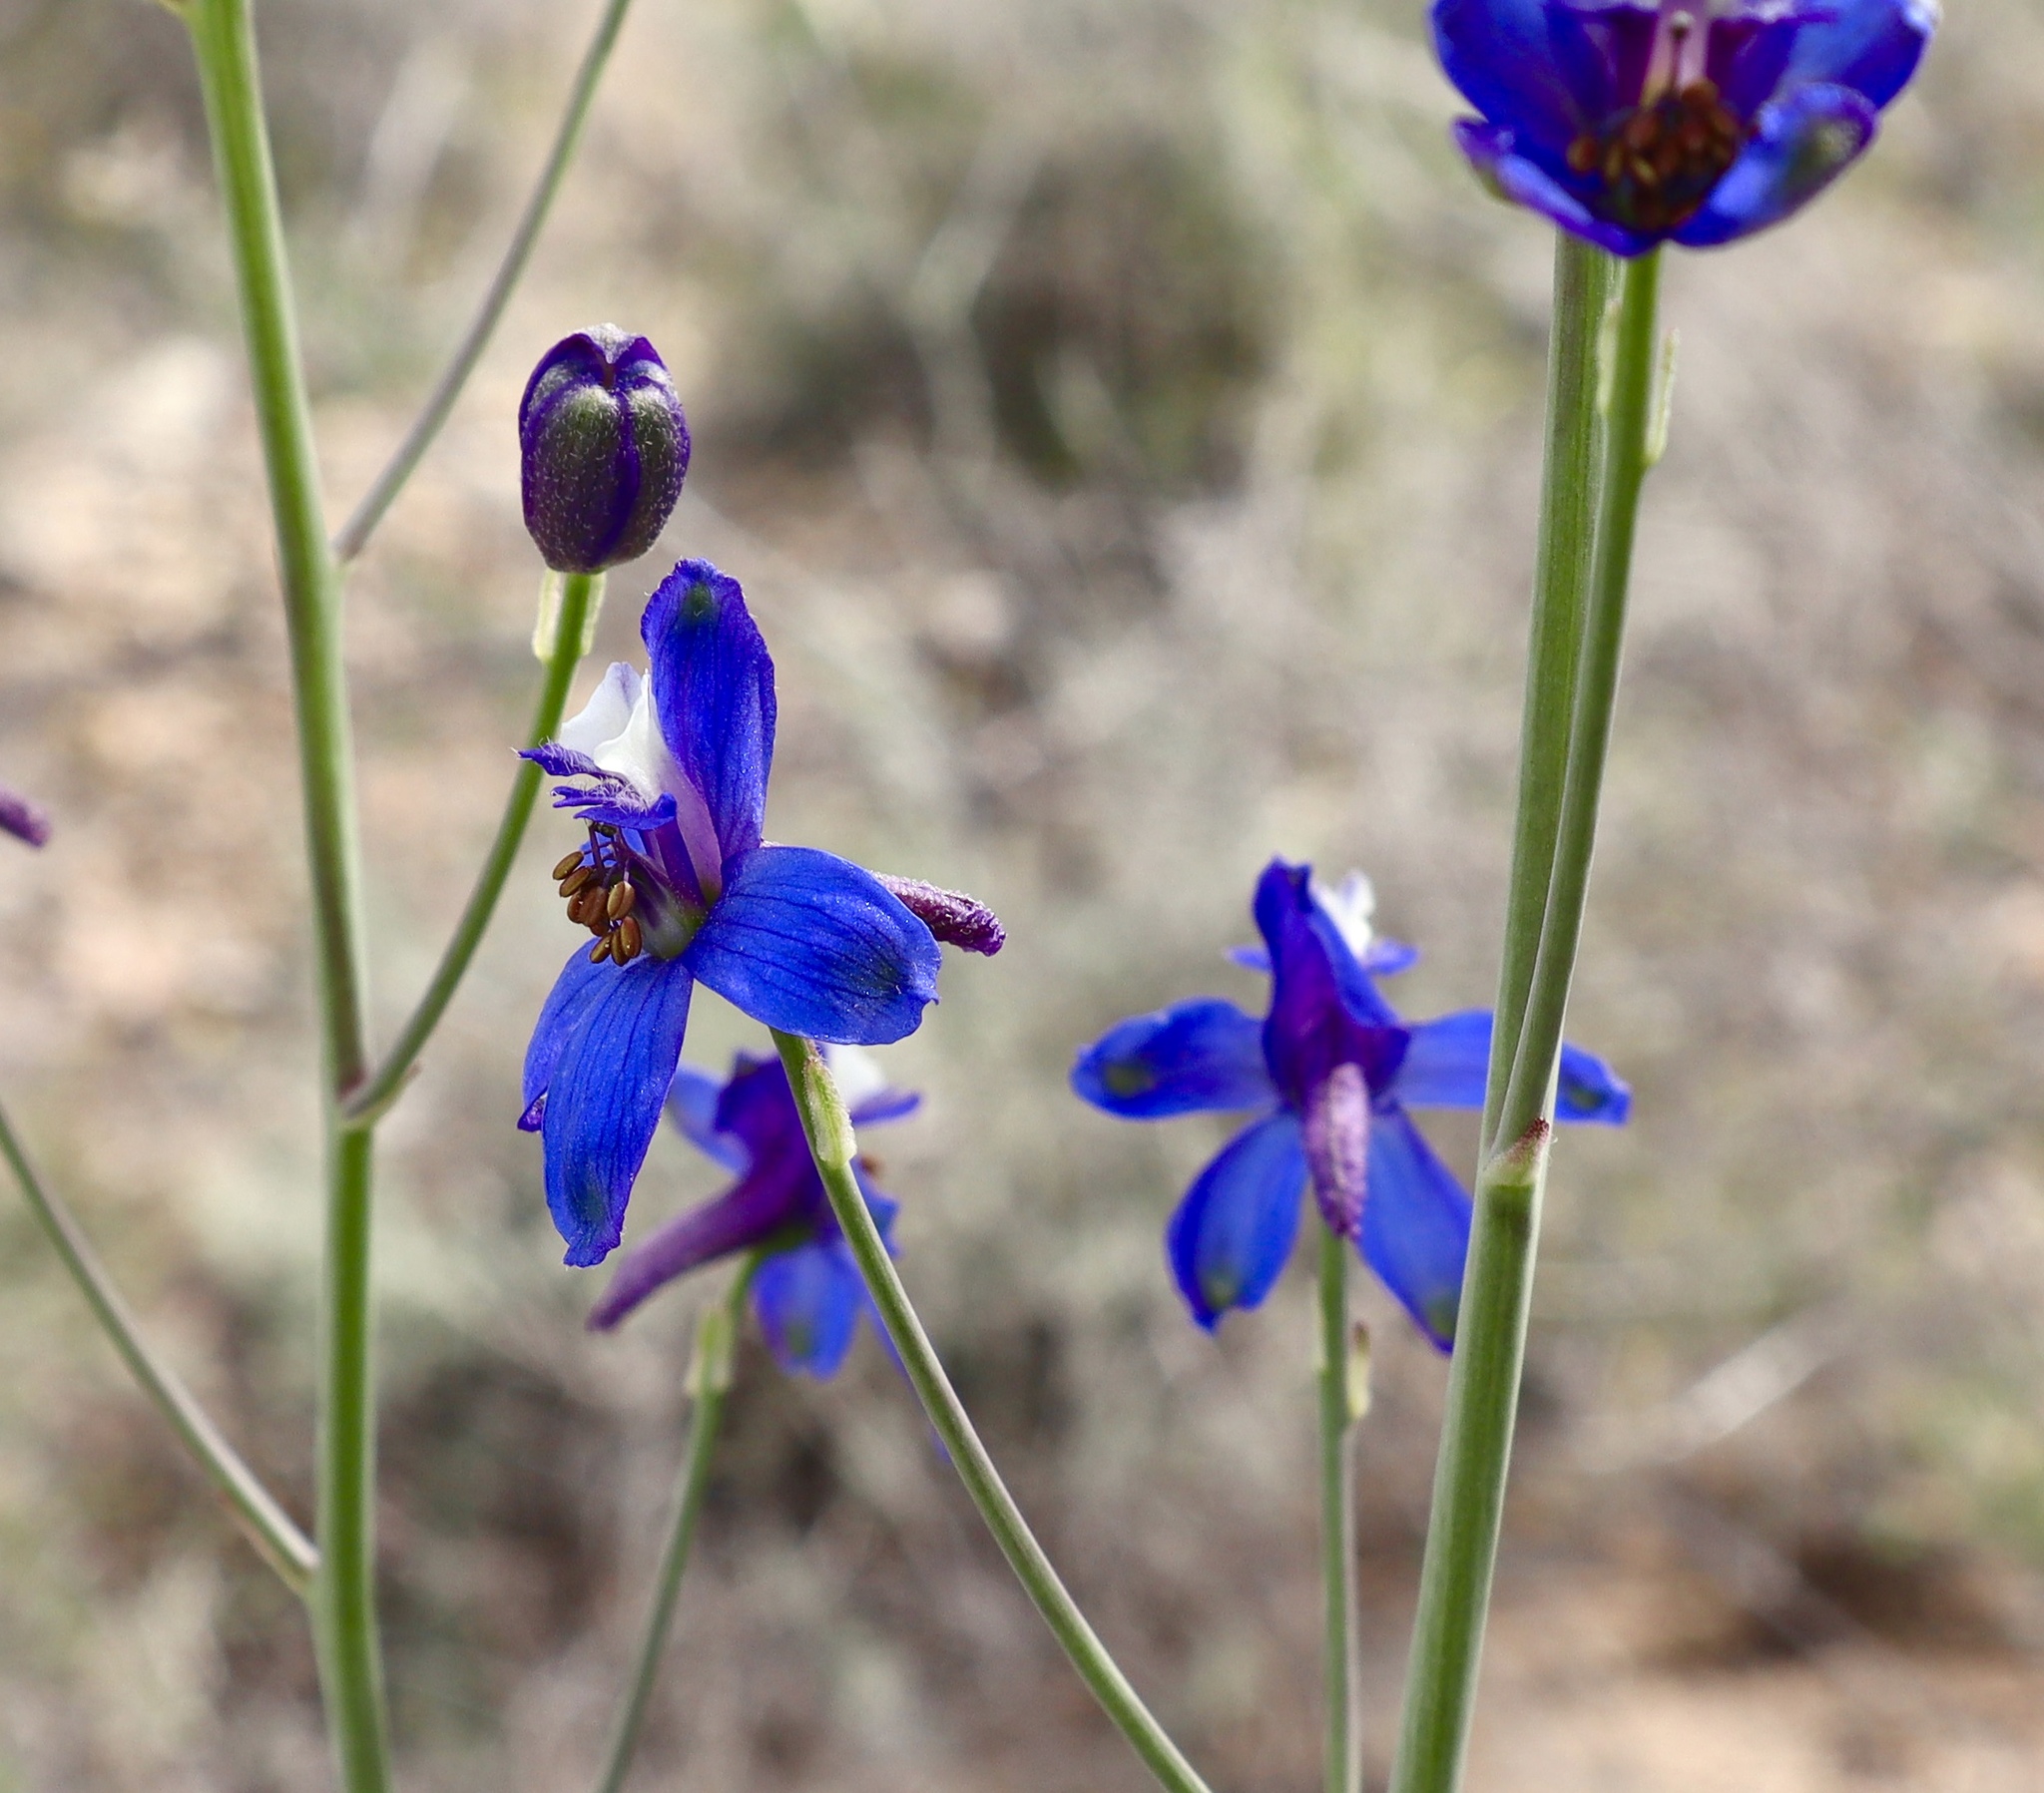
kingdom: Plantae
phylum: Tracheophyta
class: Magnoliopsida
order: Ranunculales
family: Ranunculaceae
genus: Delphinium
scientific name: Delphinium scaposum
